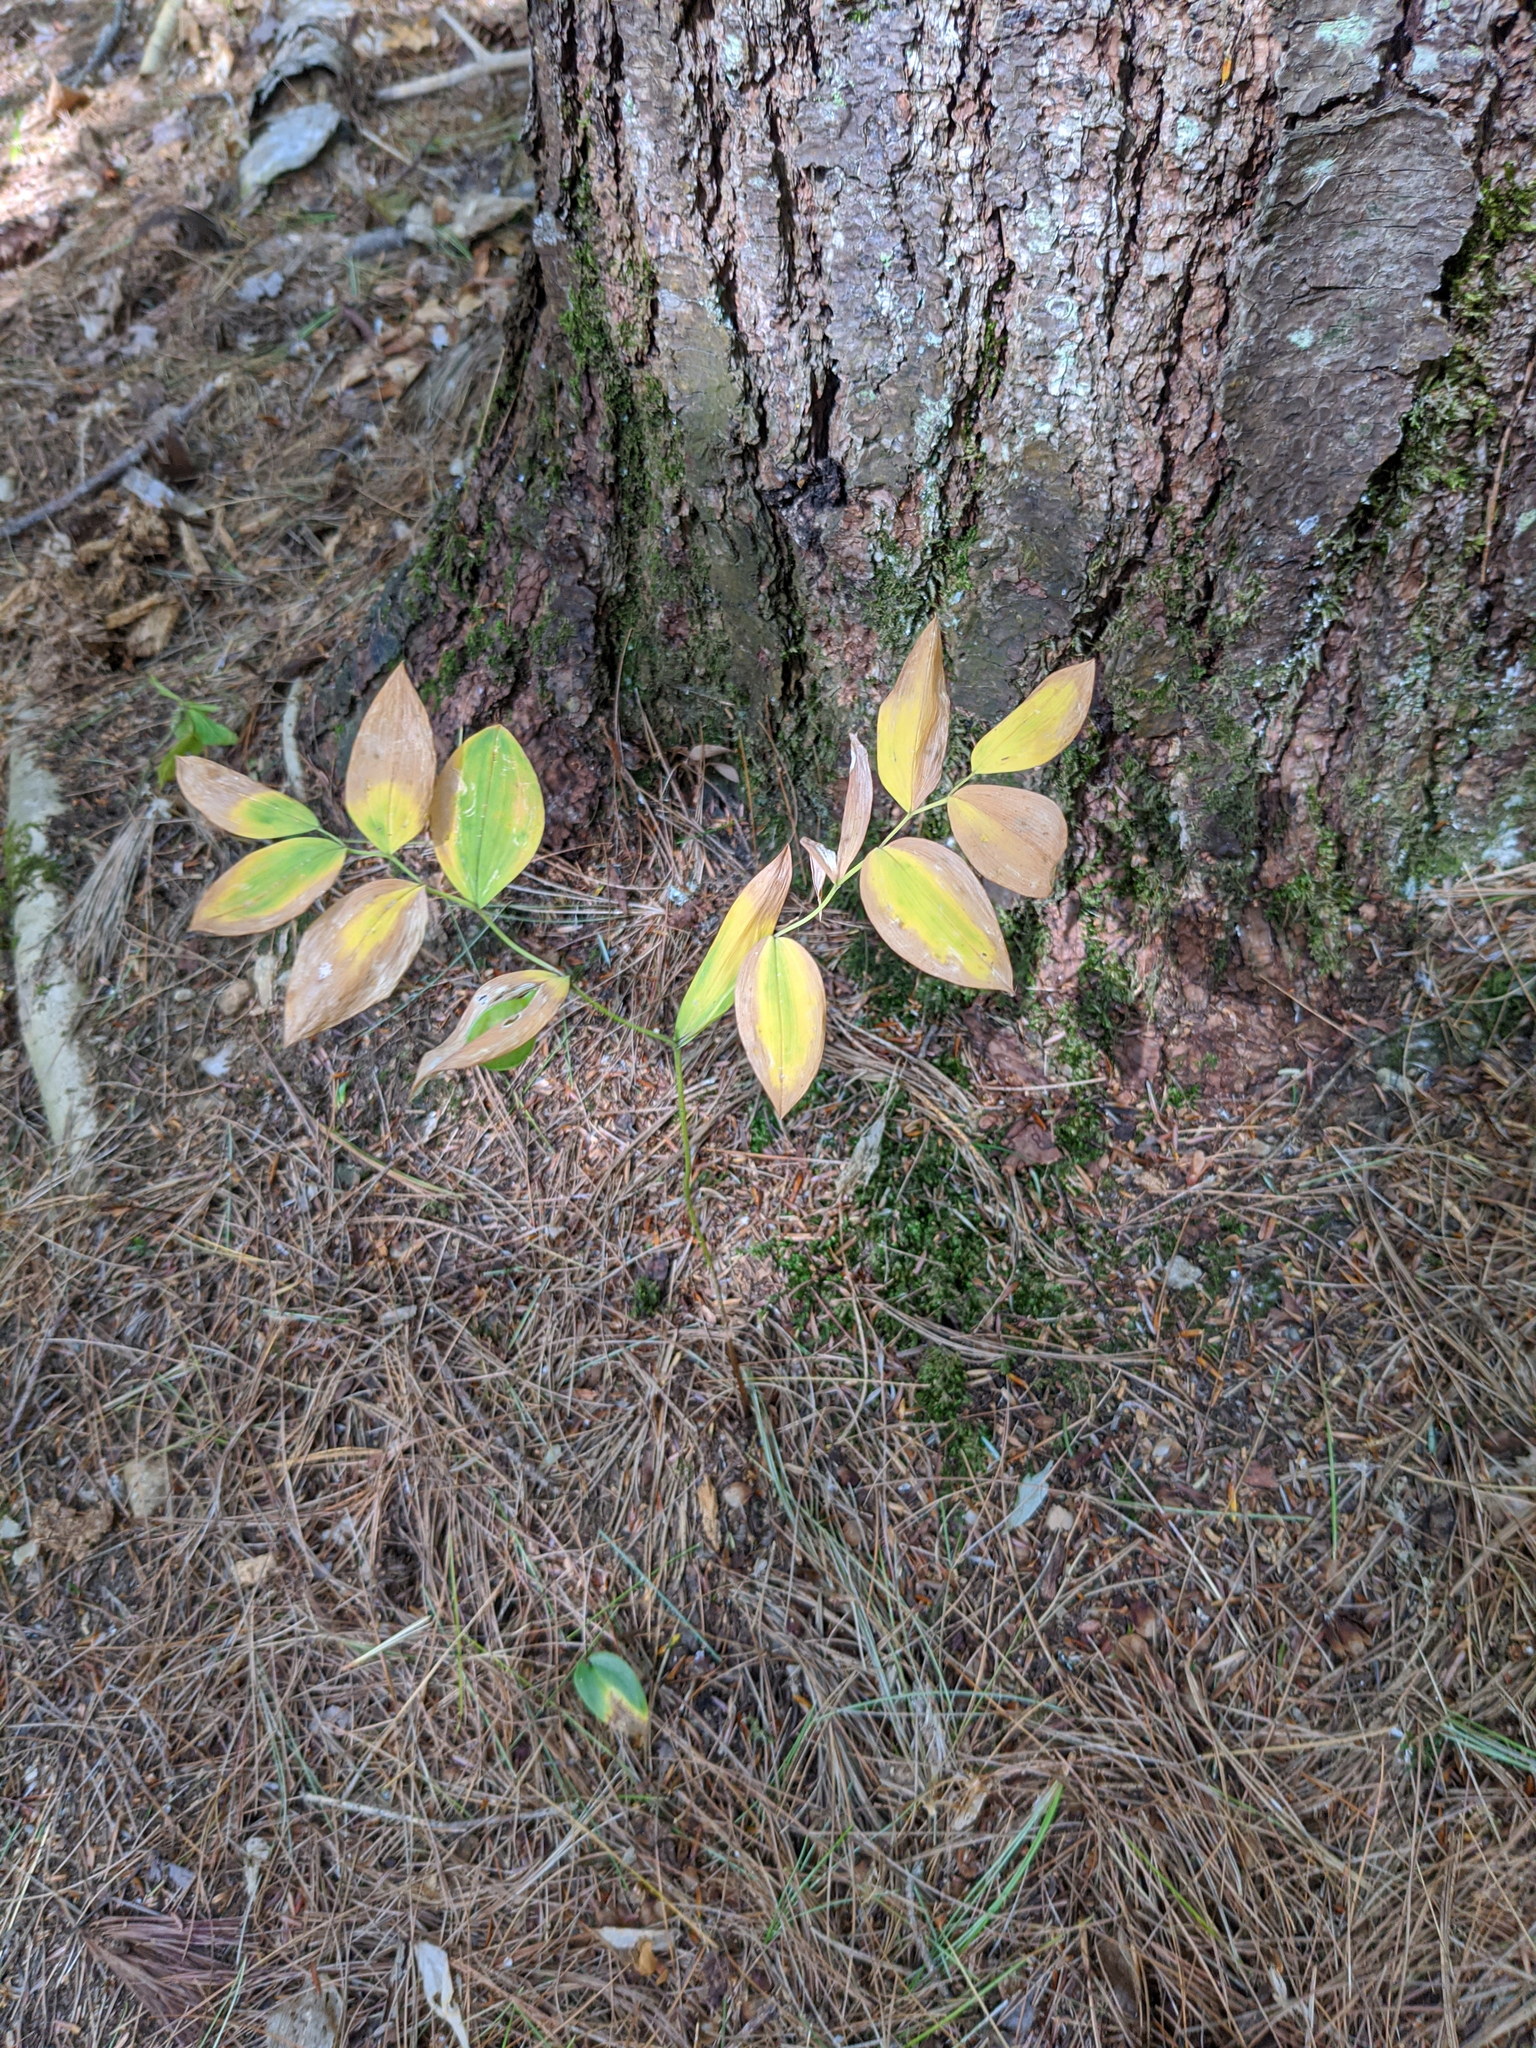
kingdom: Plantae
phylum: Tracheophyta
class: Liliopsida
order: Liliales
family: Colchicaceae
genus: Uvularia
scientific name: Uvularia sessilifolia
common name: Straw-lily
